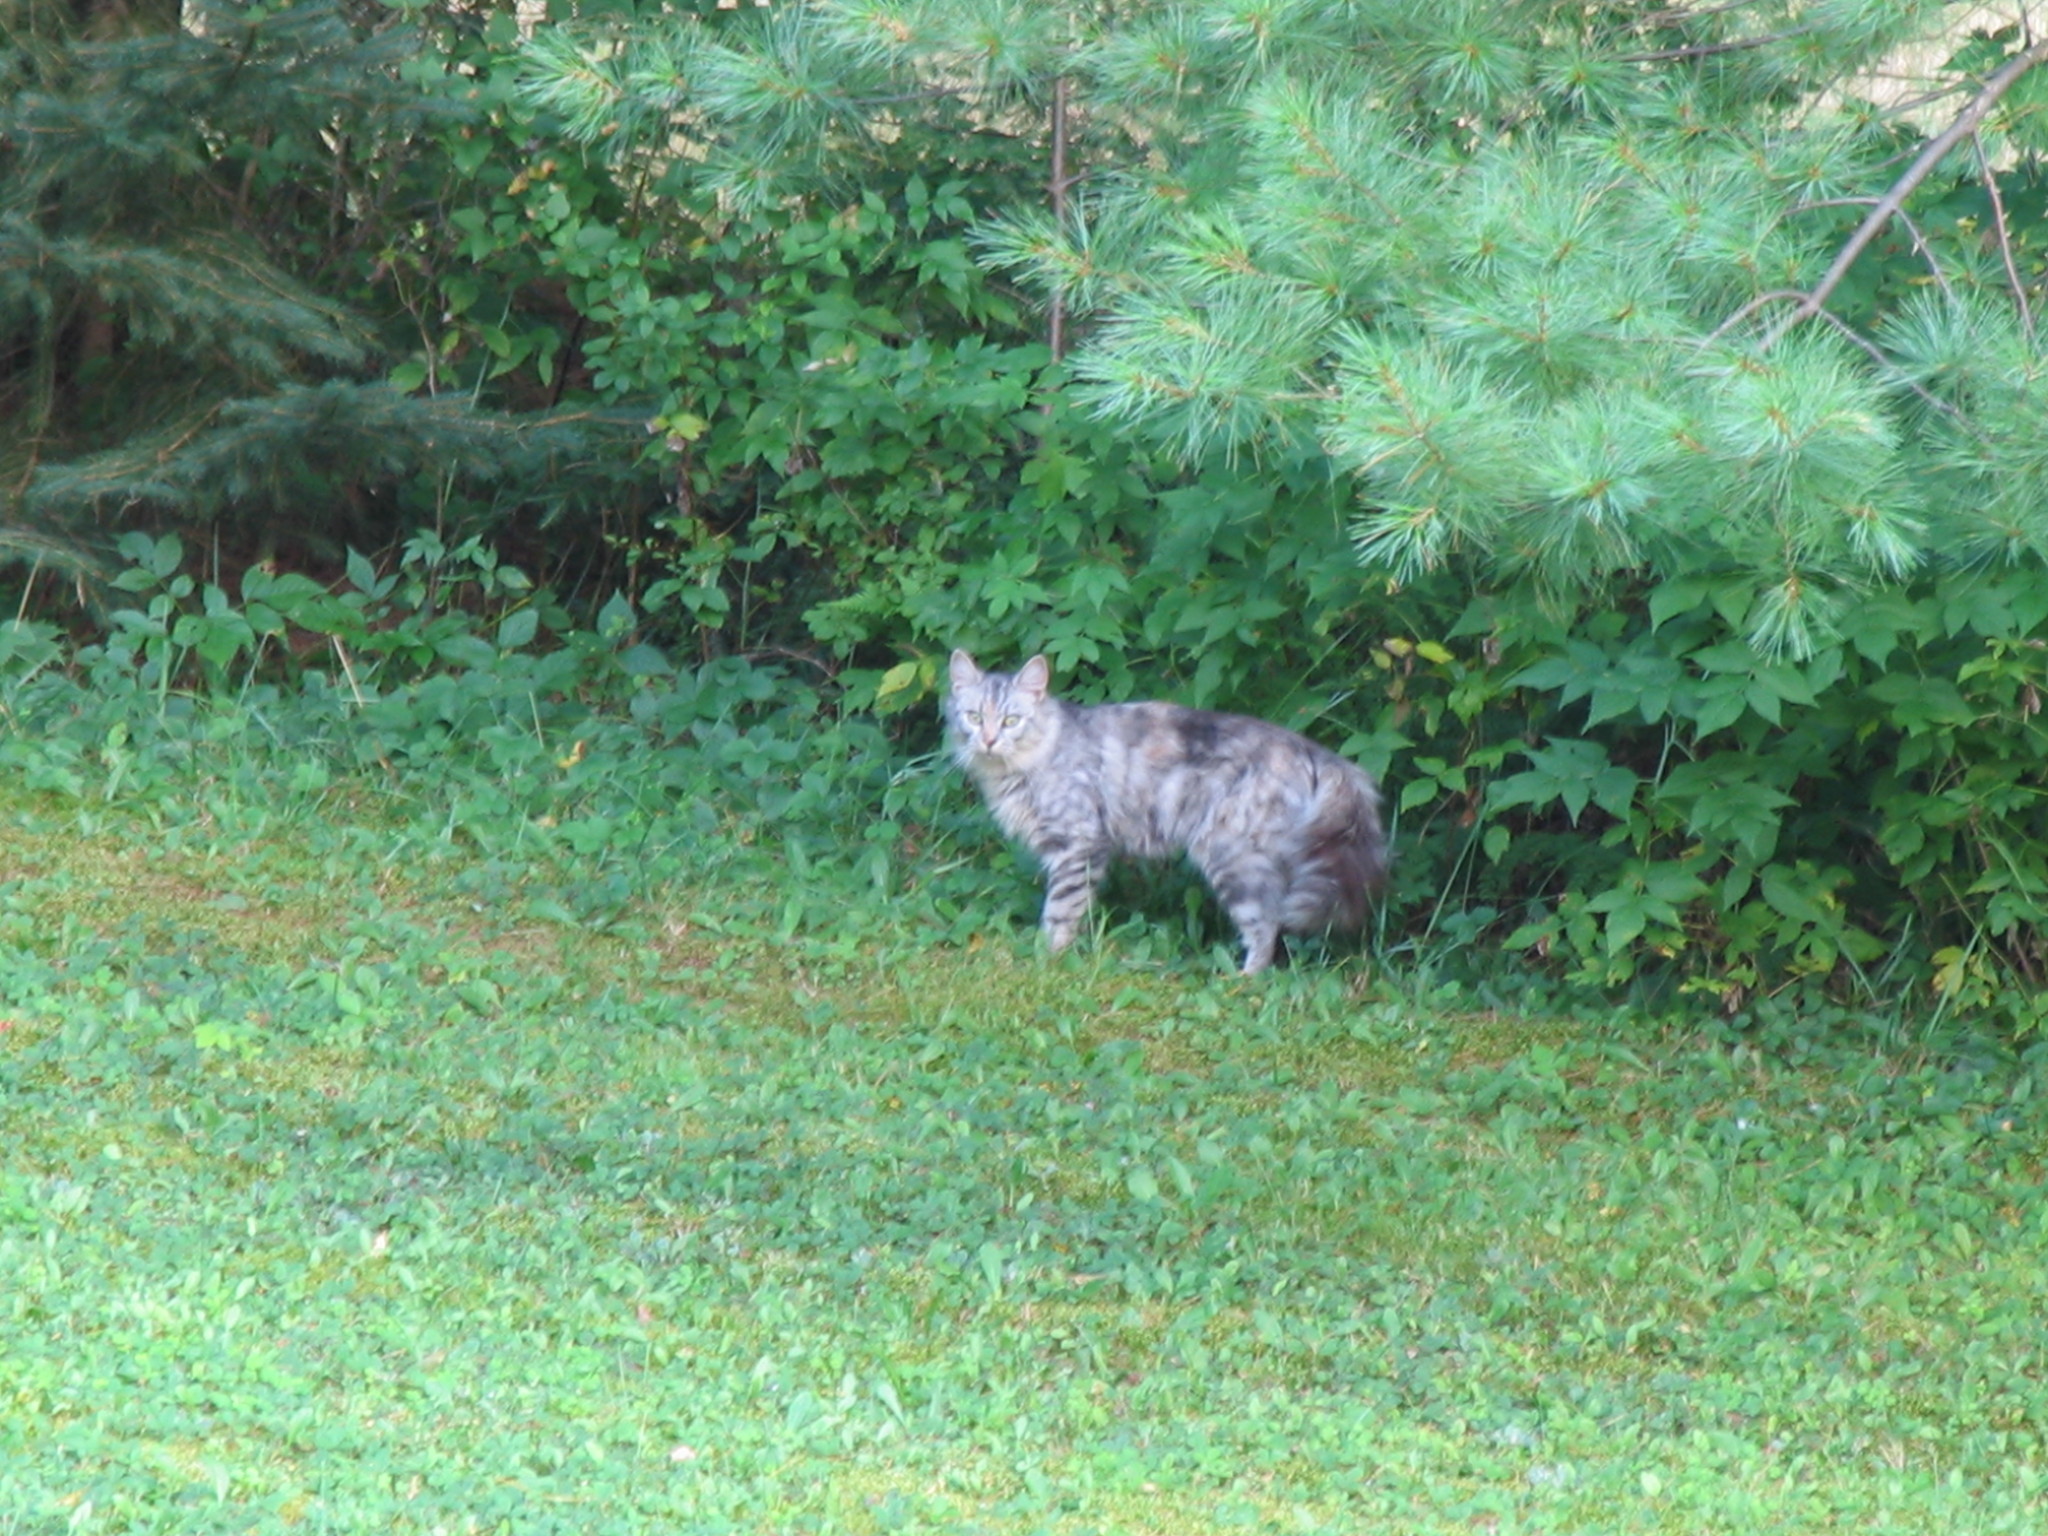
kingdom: Animalia
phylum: Chordata
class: Mammalia
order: Carnivora
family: Felidae
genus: Felis
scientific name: Felis catus
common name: Domestic cat
